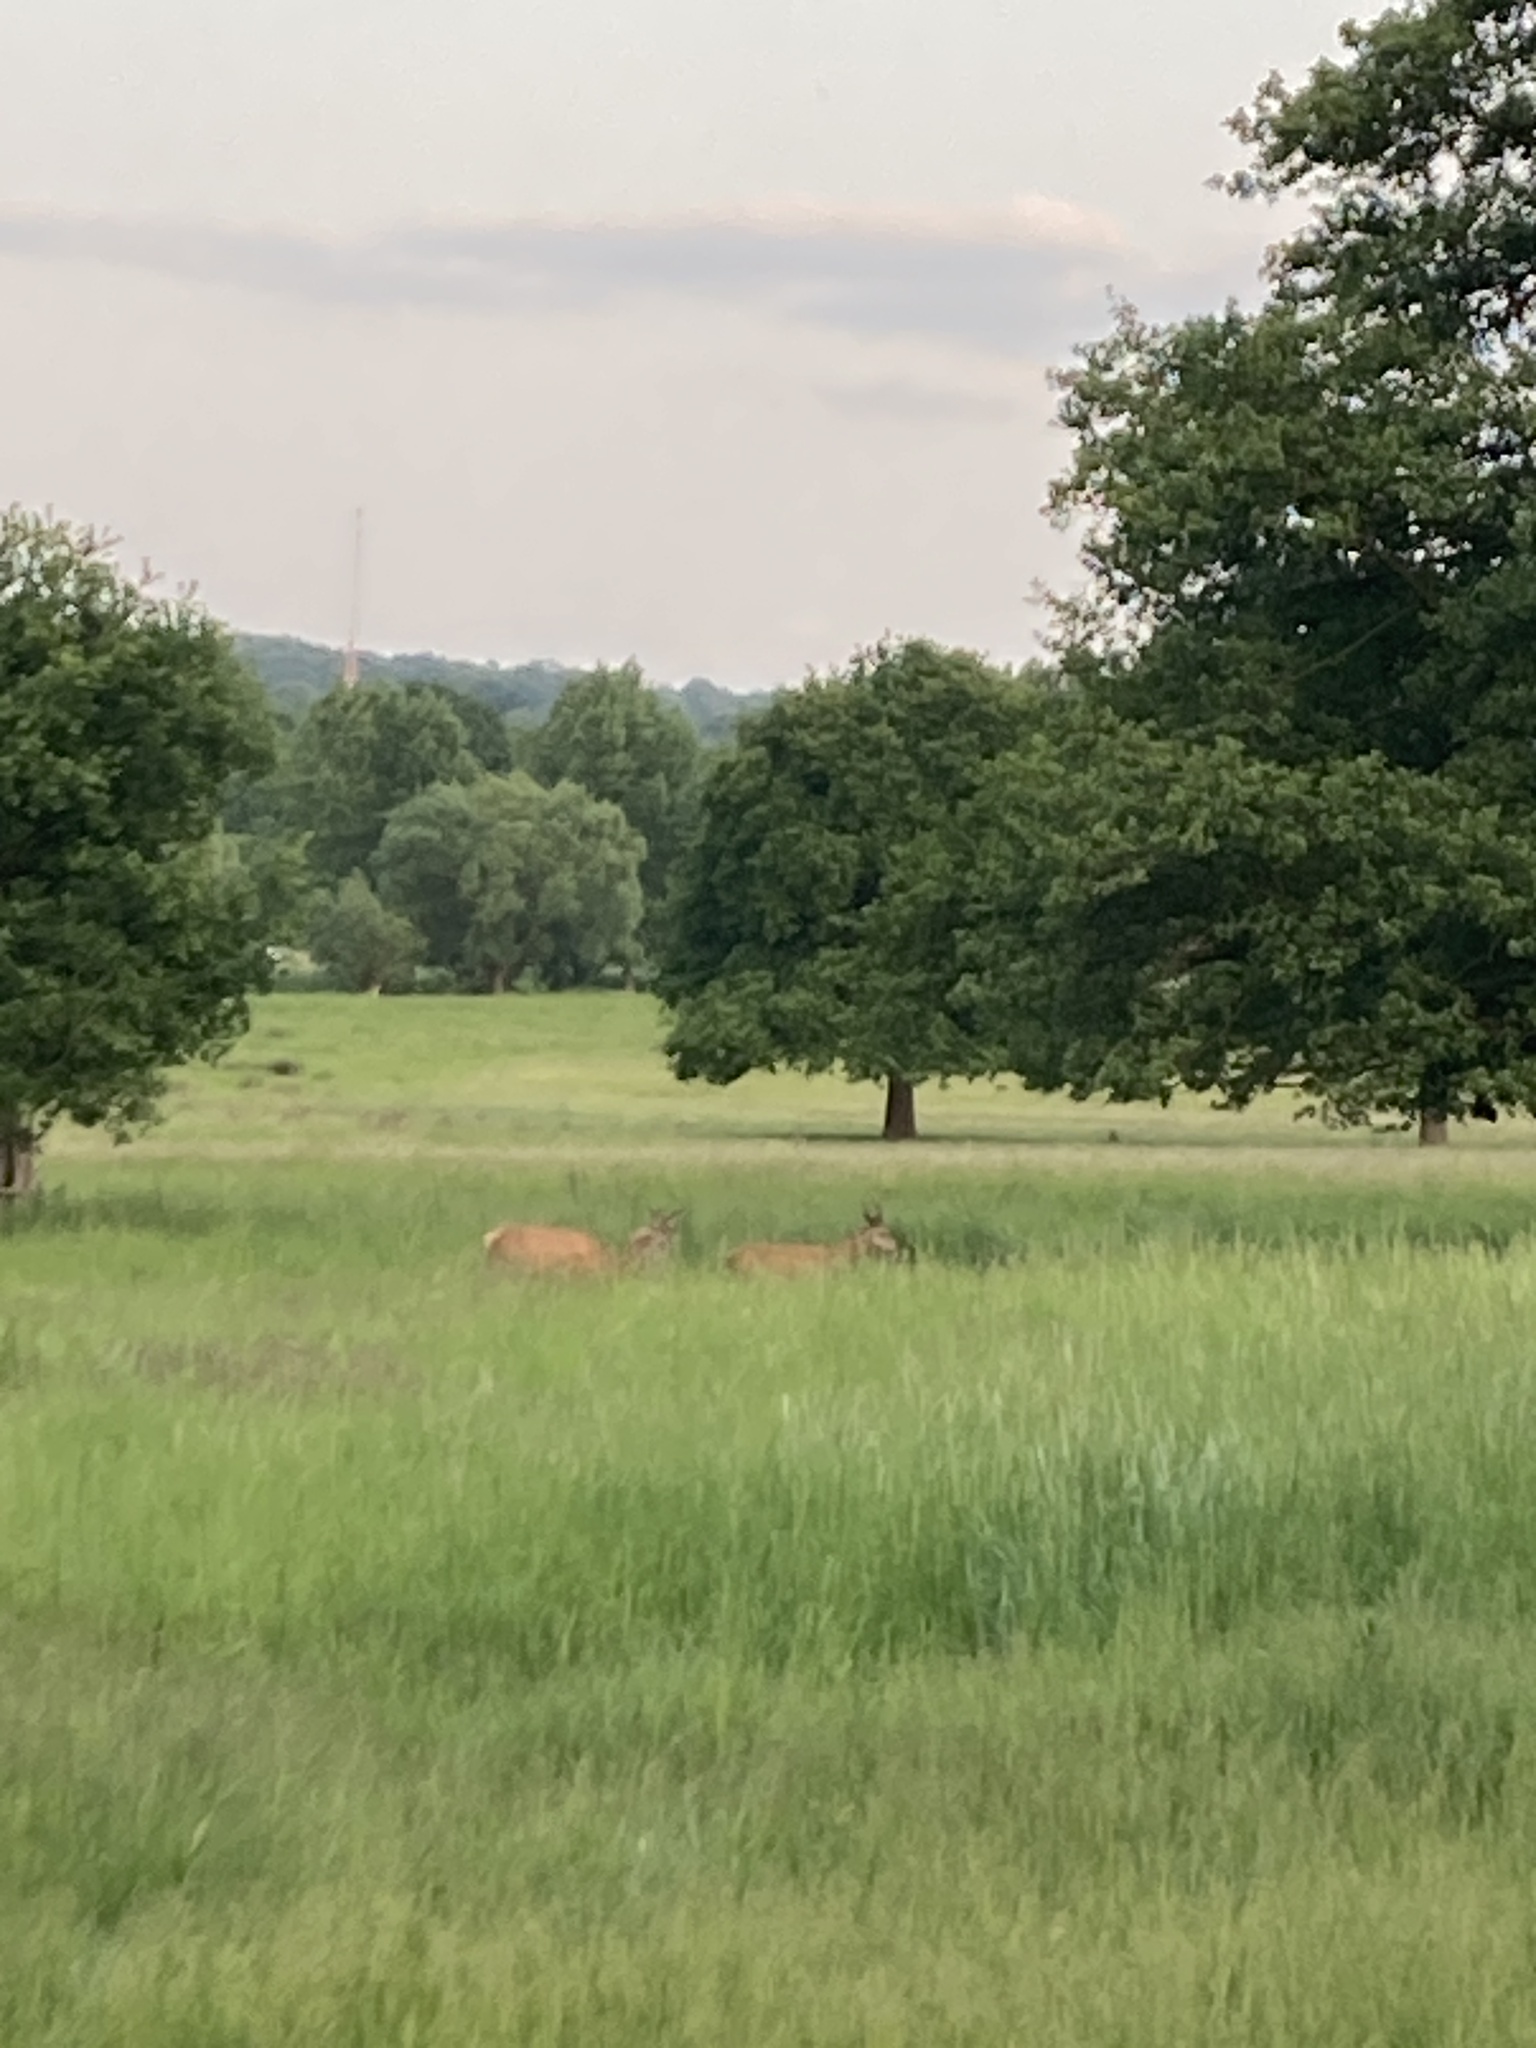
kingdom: Animalia
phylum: Chordata
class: Mammalia
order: Artiodactyla
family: Cervidae
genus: Cervus
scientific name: Cervus elaphus
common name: Red deer
